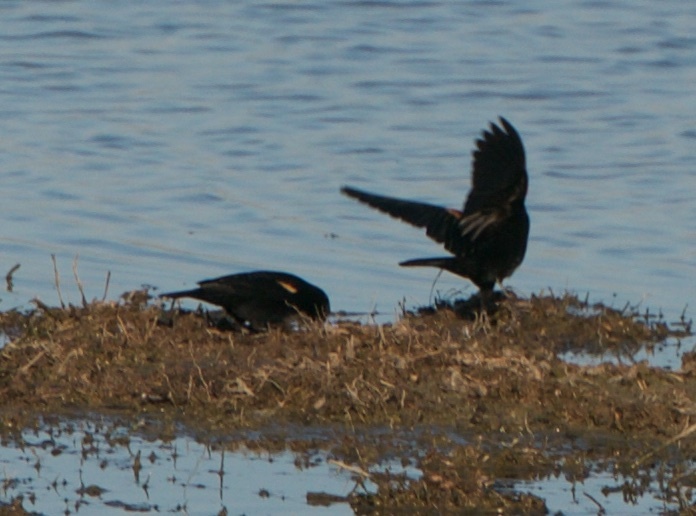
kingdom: Animalia
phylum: Chordata
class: Aves
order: Passeriformes
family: Icteridae
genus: Agelaius
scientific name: Agelaius phoeniceus
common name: Red-winged blackbird
